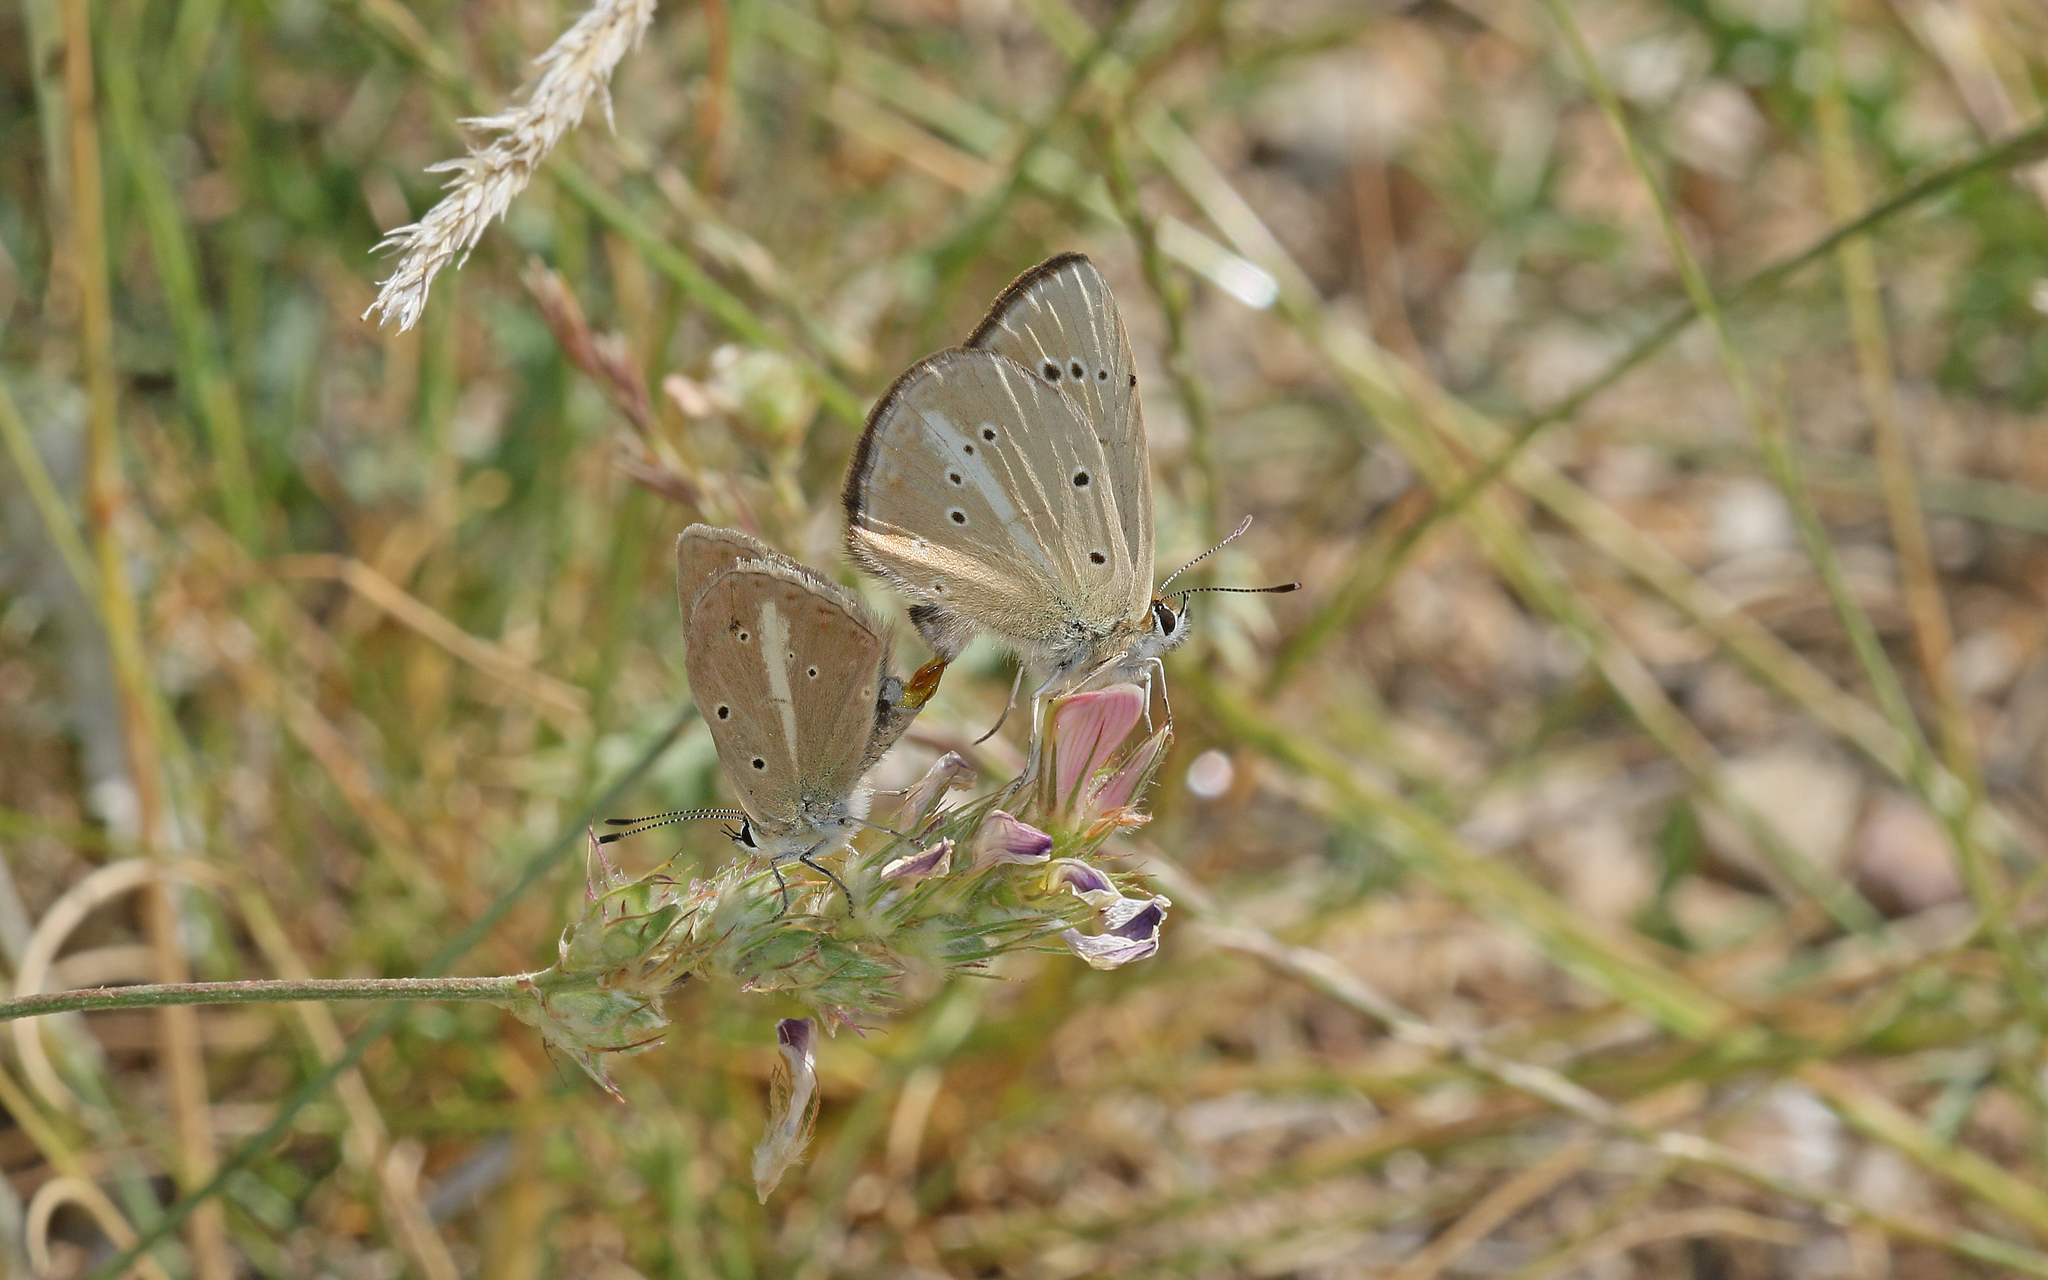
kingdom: Animalia
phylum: Arthropoda
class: Insecta
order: Lepidoptera
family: Lycaenidae
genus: Polyommatus
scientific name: Polyommatus ripartii
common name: Ripart's anomalous blue
